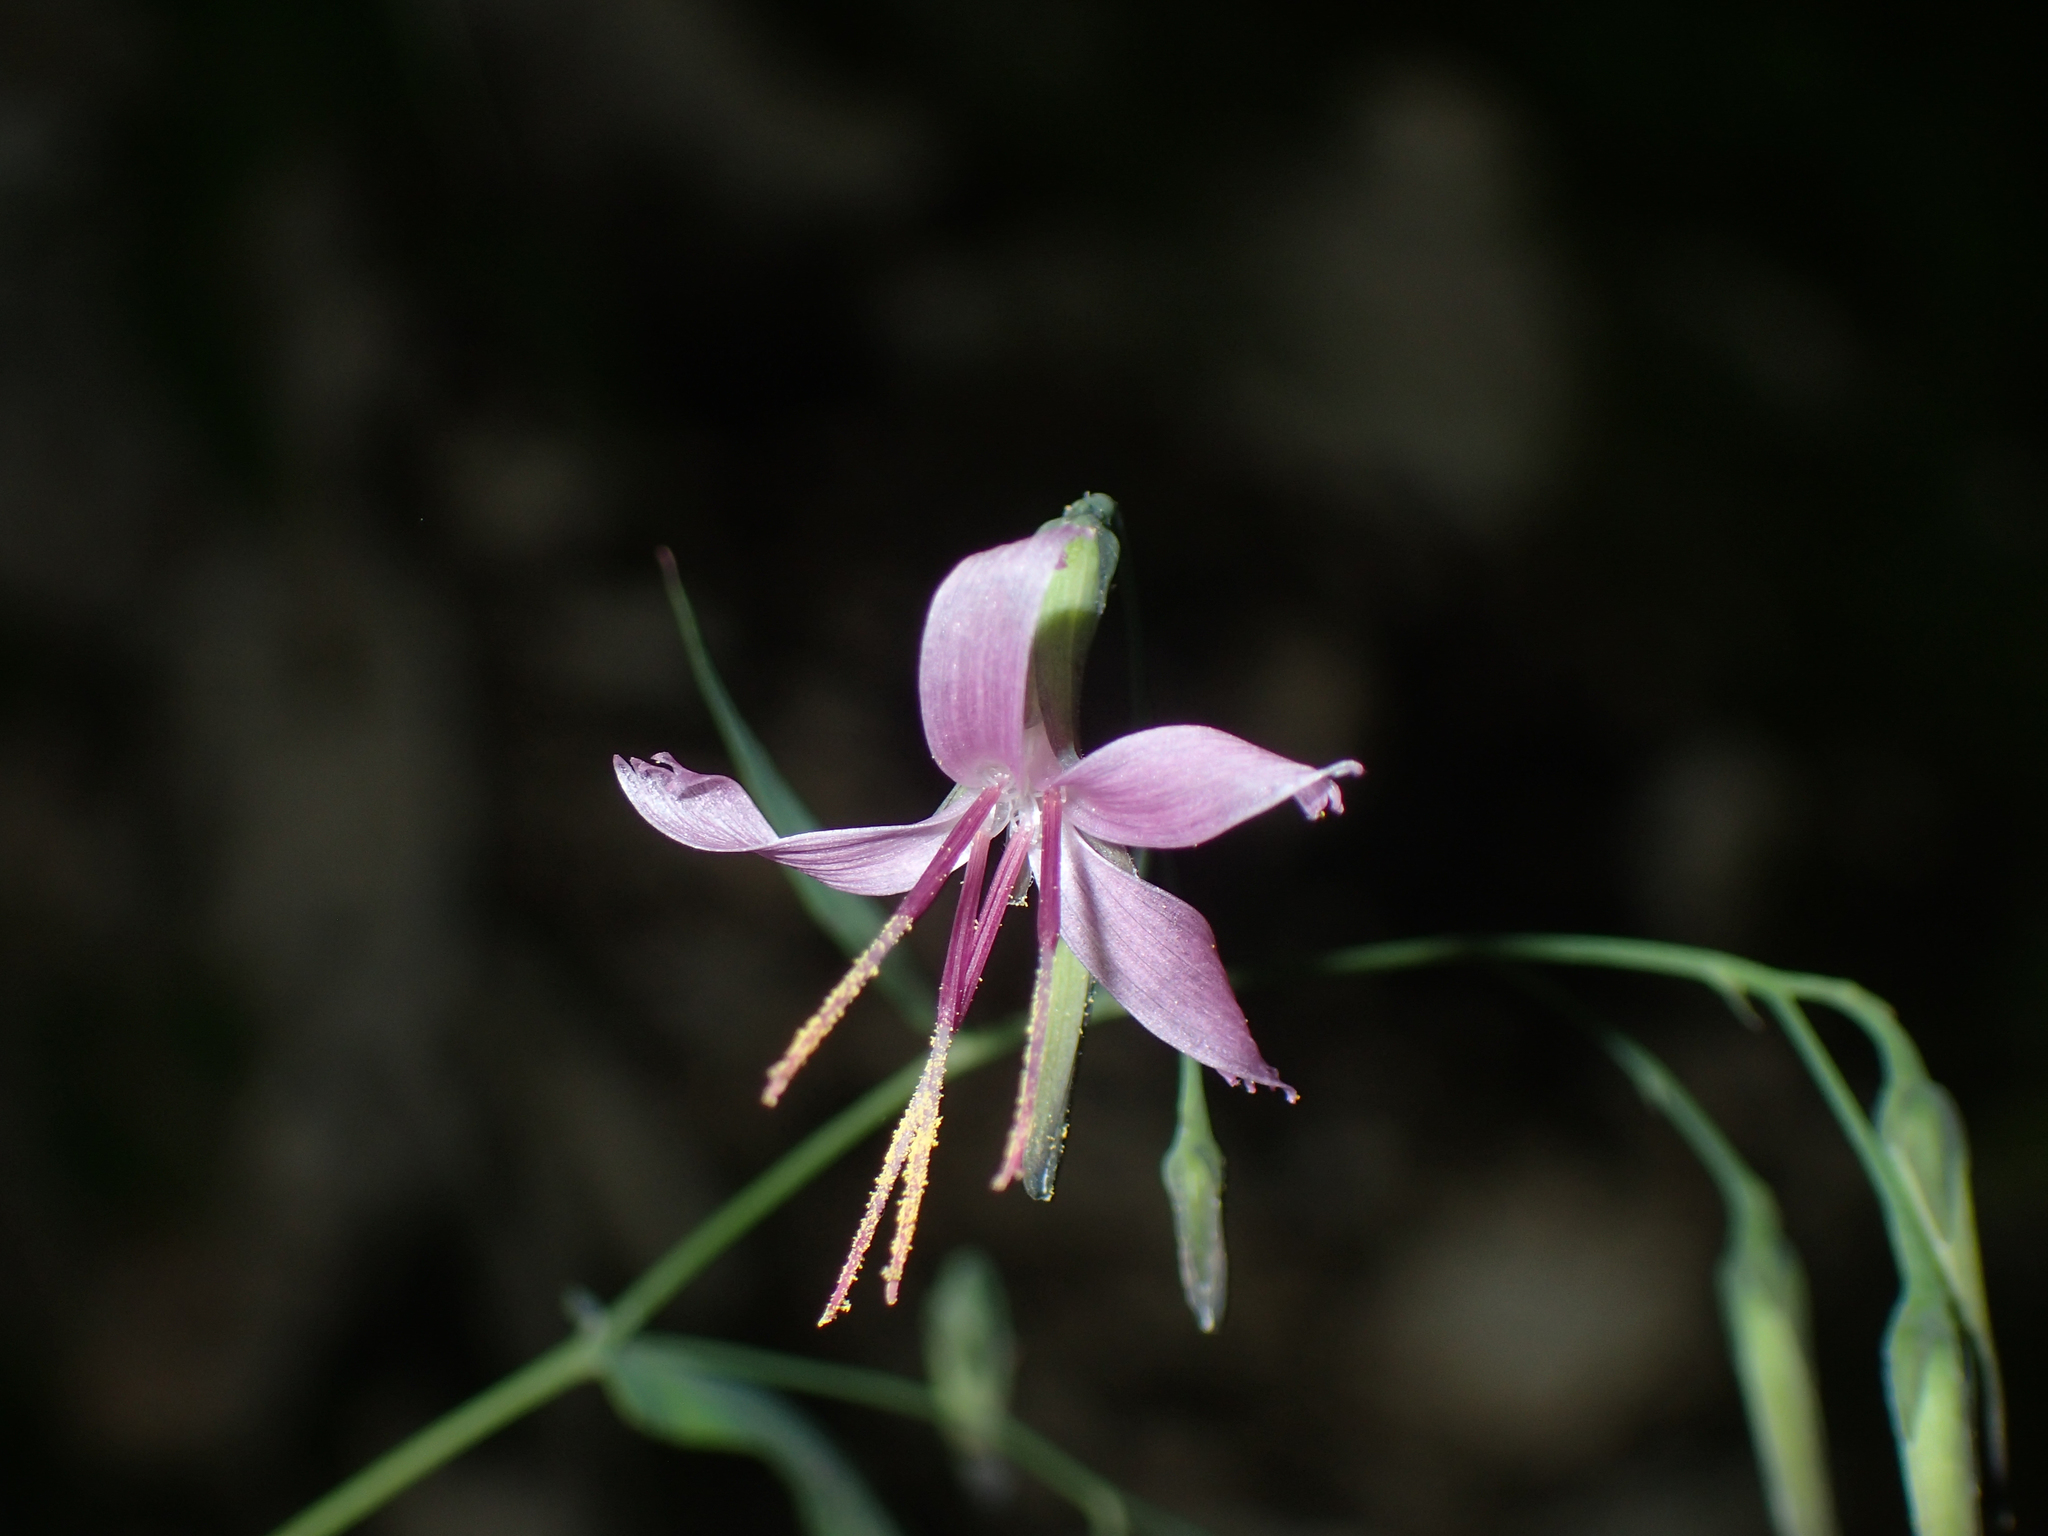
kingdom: Plantae
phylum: Tracheophyta
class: Magnoliopsida
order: Asterales
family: Asteraceae
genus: Prenanthes
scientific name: Prenanthes purpurea
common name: Purple lettuce
